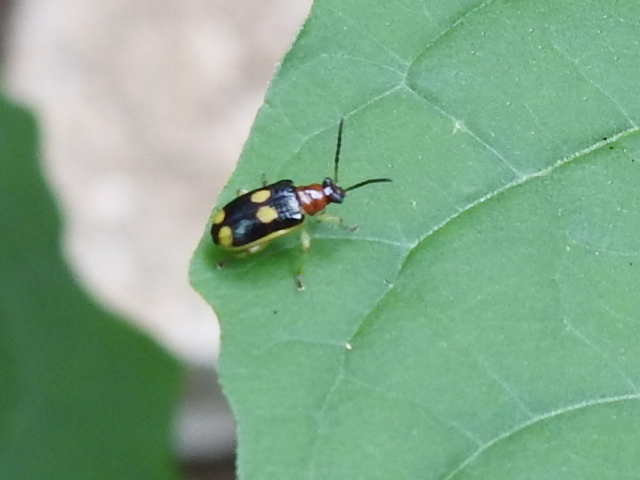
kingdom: Animalia
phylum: Arthropoda
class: Insecta
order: Coleoptera
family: Chrysomelidae
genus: Lema
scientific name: Lema opulenta
